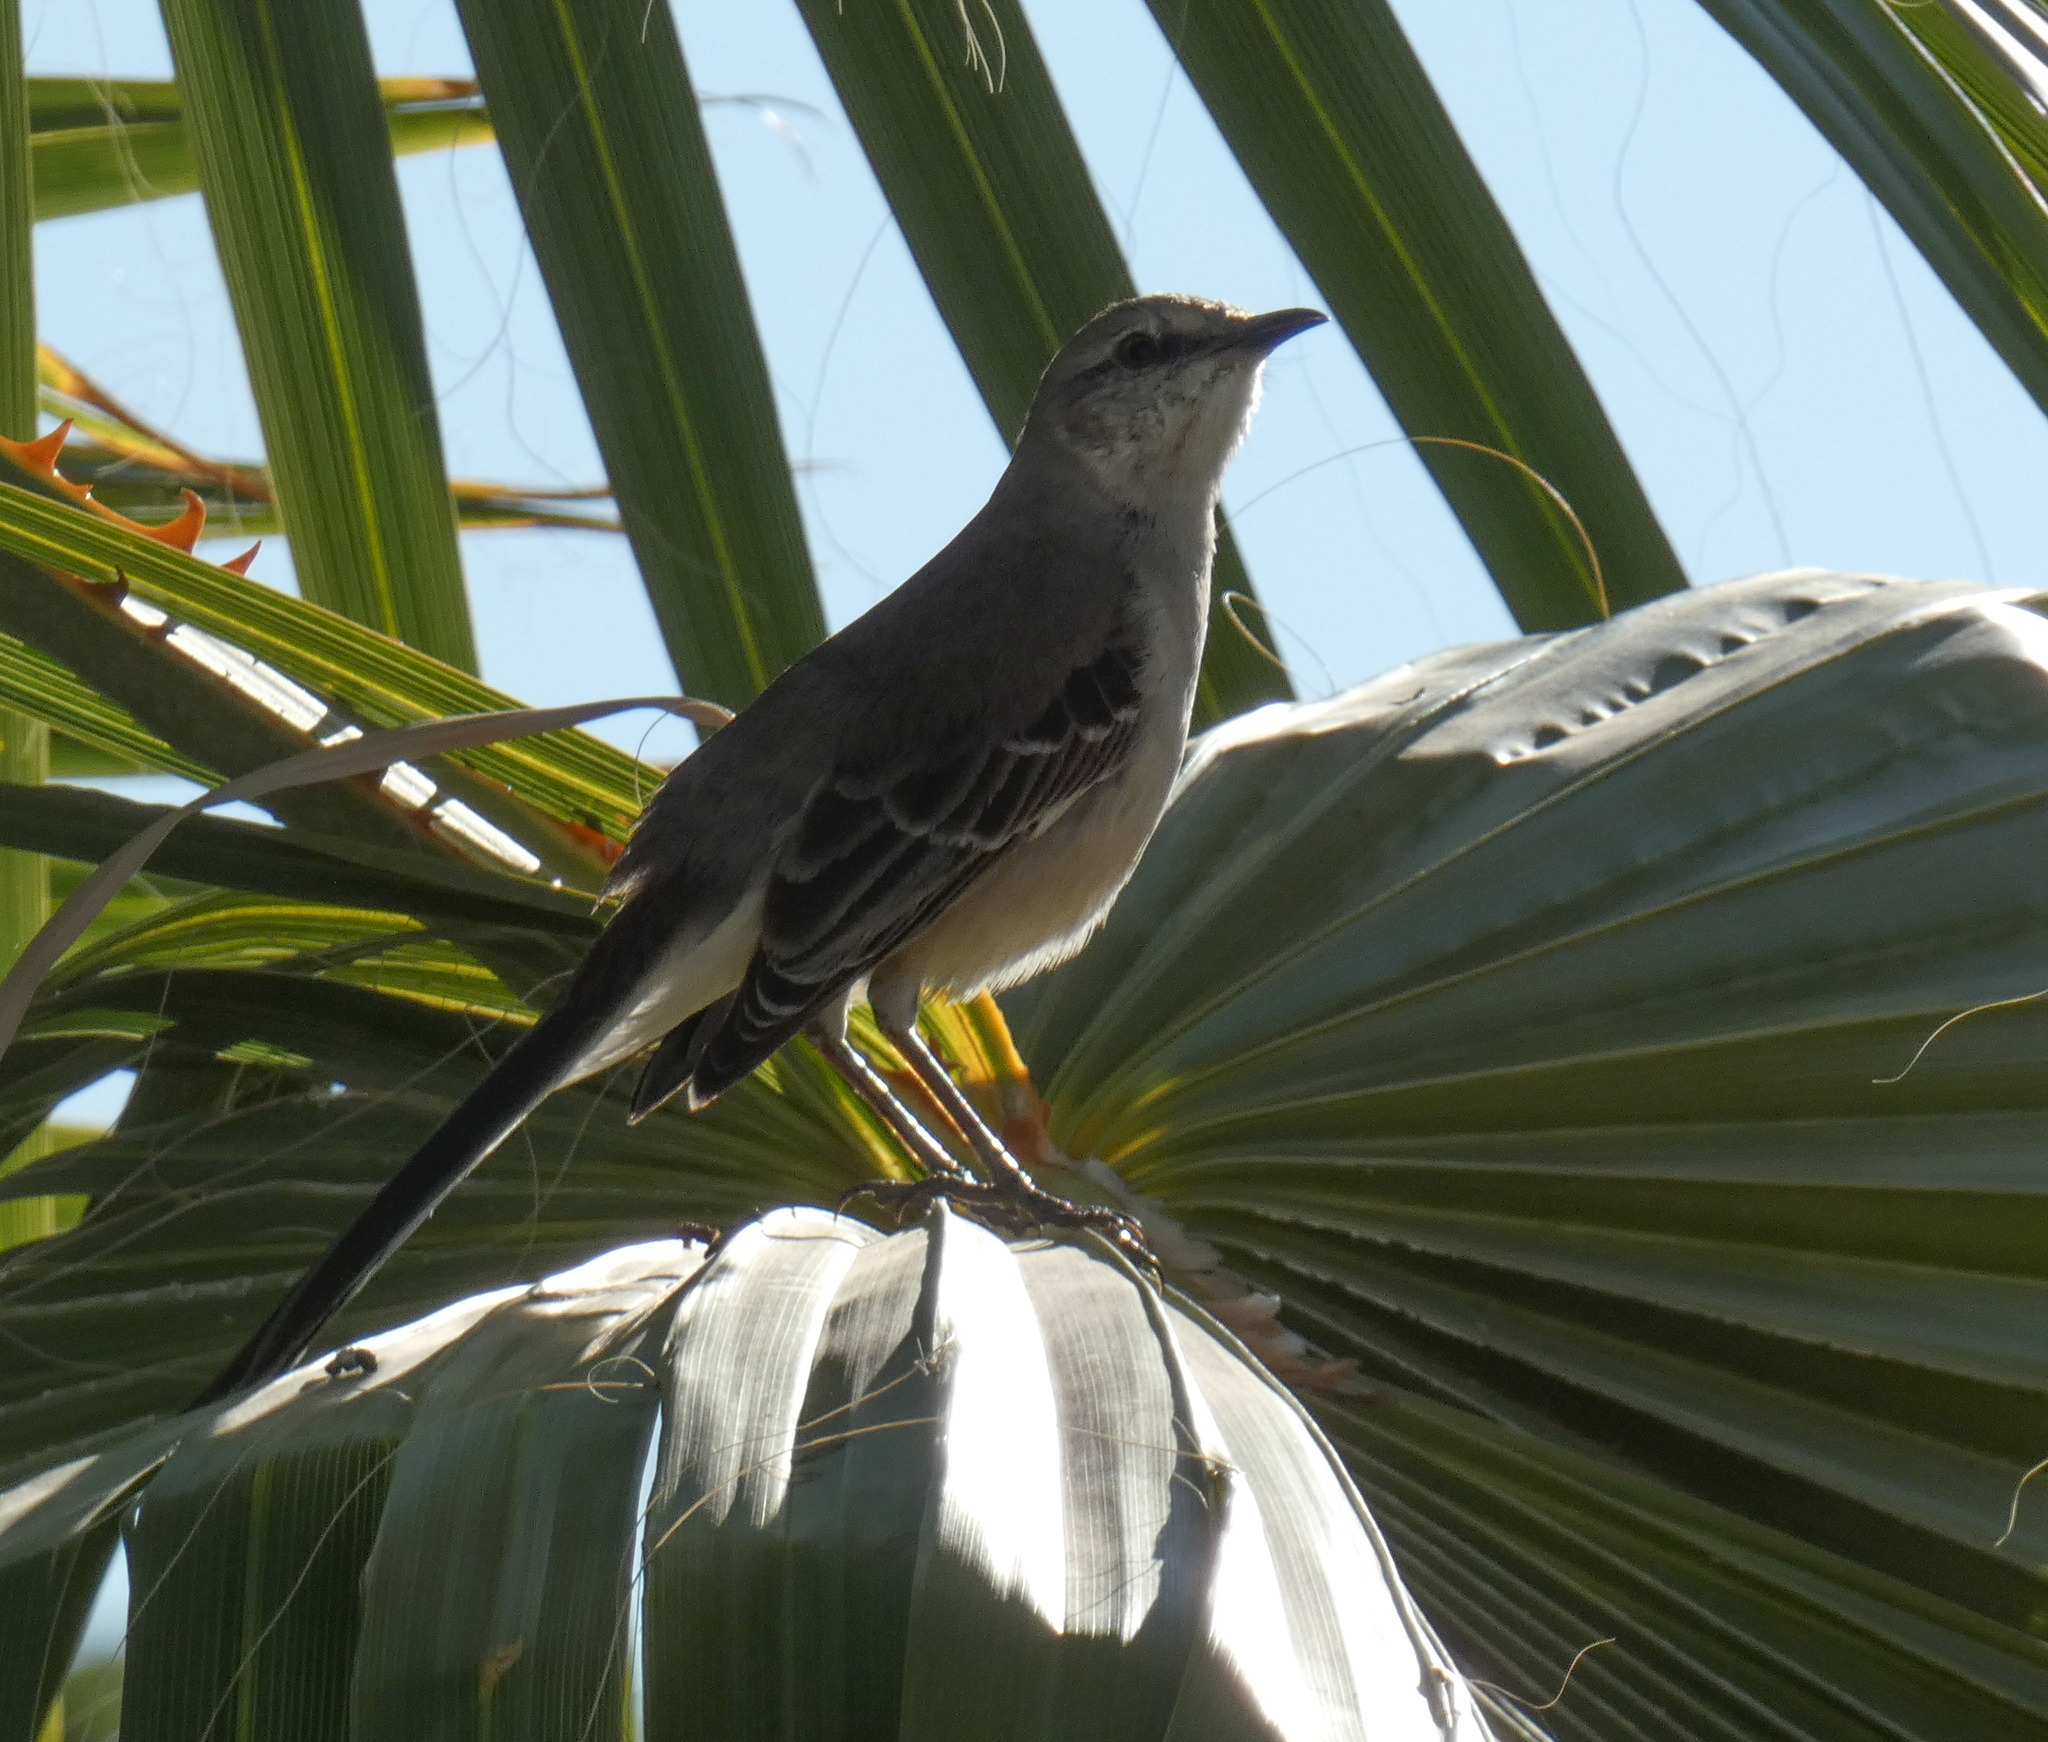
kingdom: Animalia
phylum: Chordata
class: Aves
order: Passeriformes
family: Mimidae
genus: Mimus
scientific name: Mimus polyglottos
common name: Northern mockingbird
